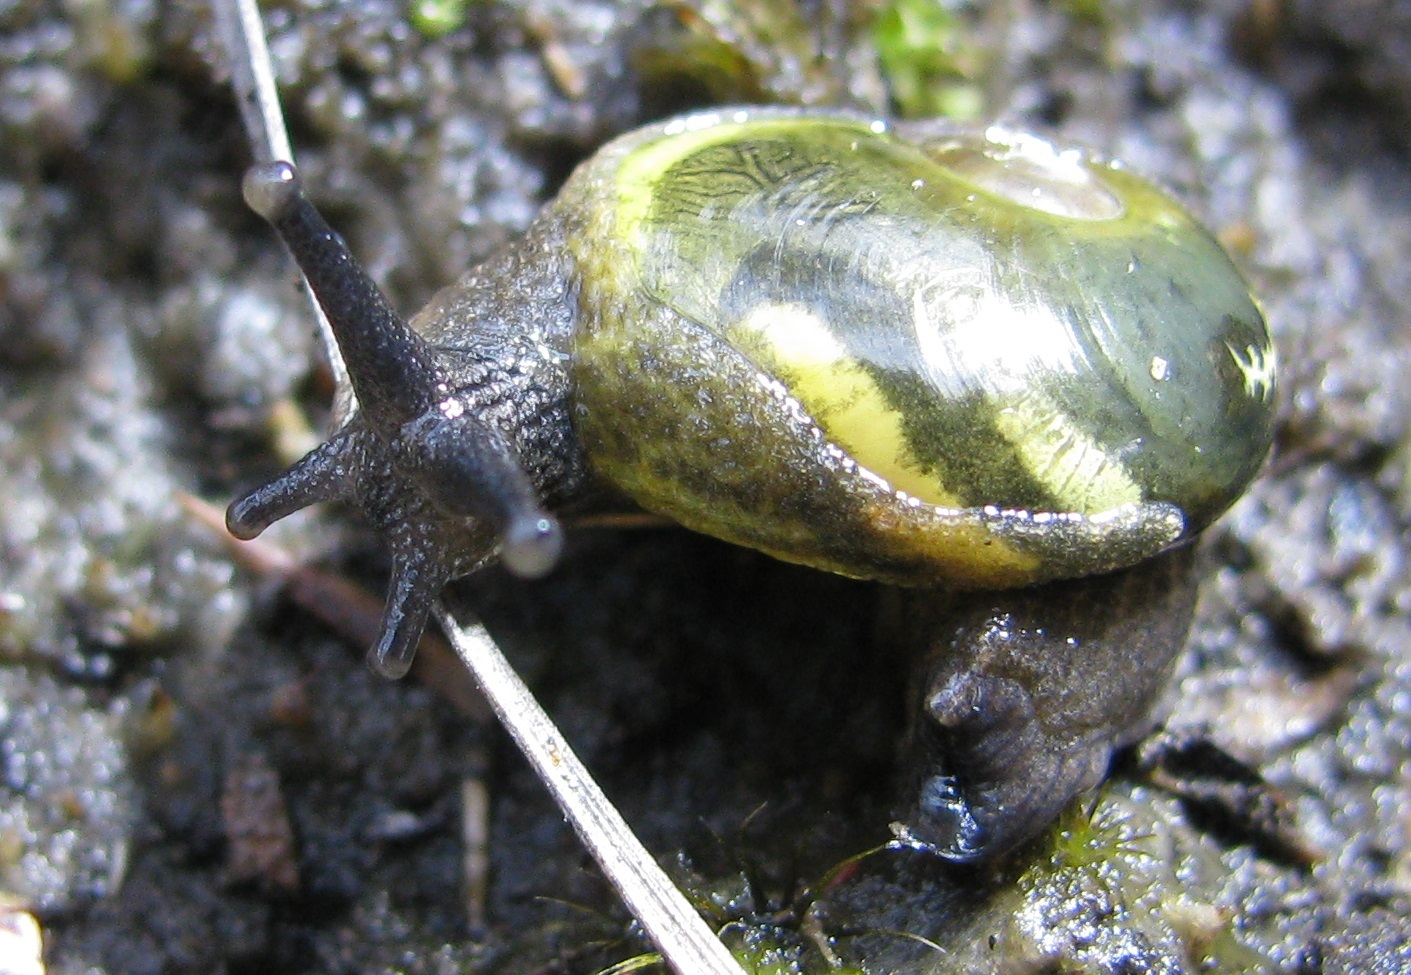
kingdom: Animalia
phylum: Mollusca
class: Gastropoda
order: Stylommatophora
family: Helicarionidae
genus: Helicarion
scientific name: Helicarion cuvieri
